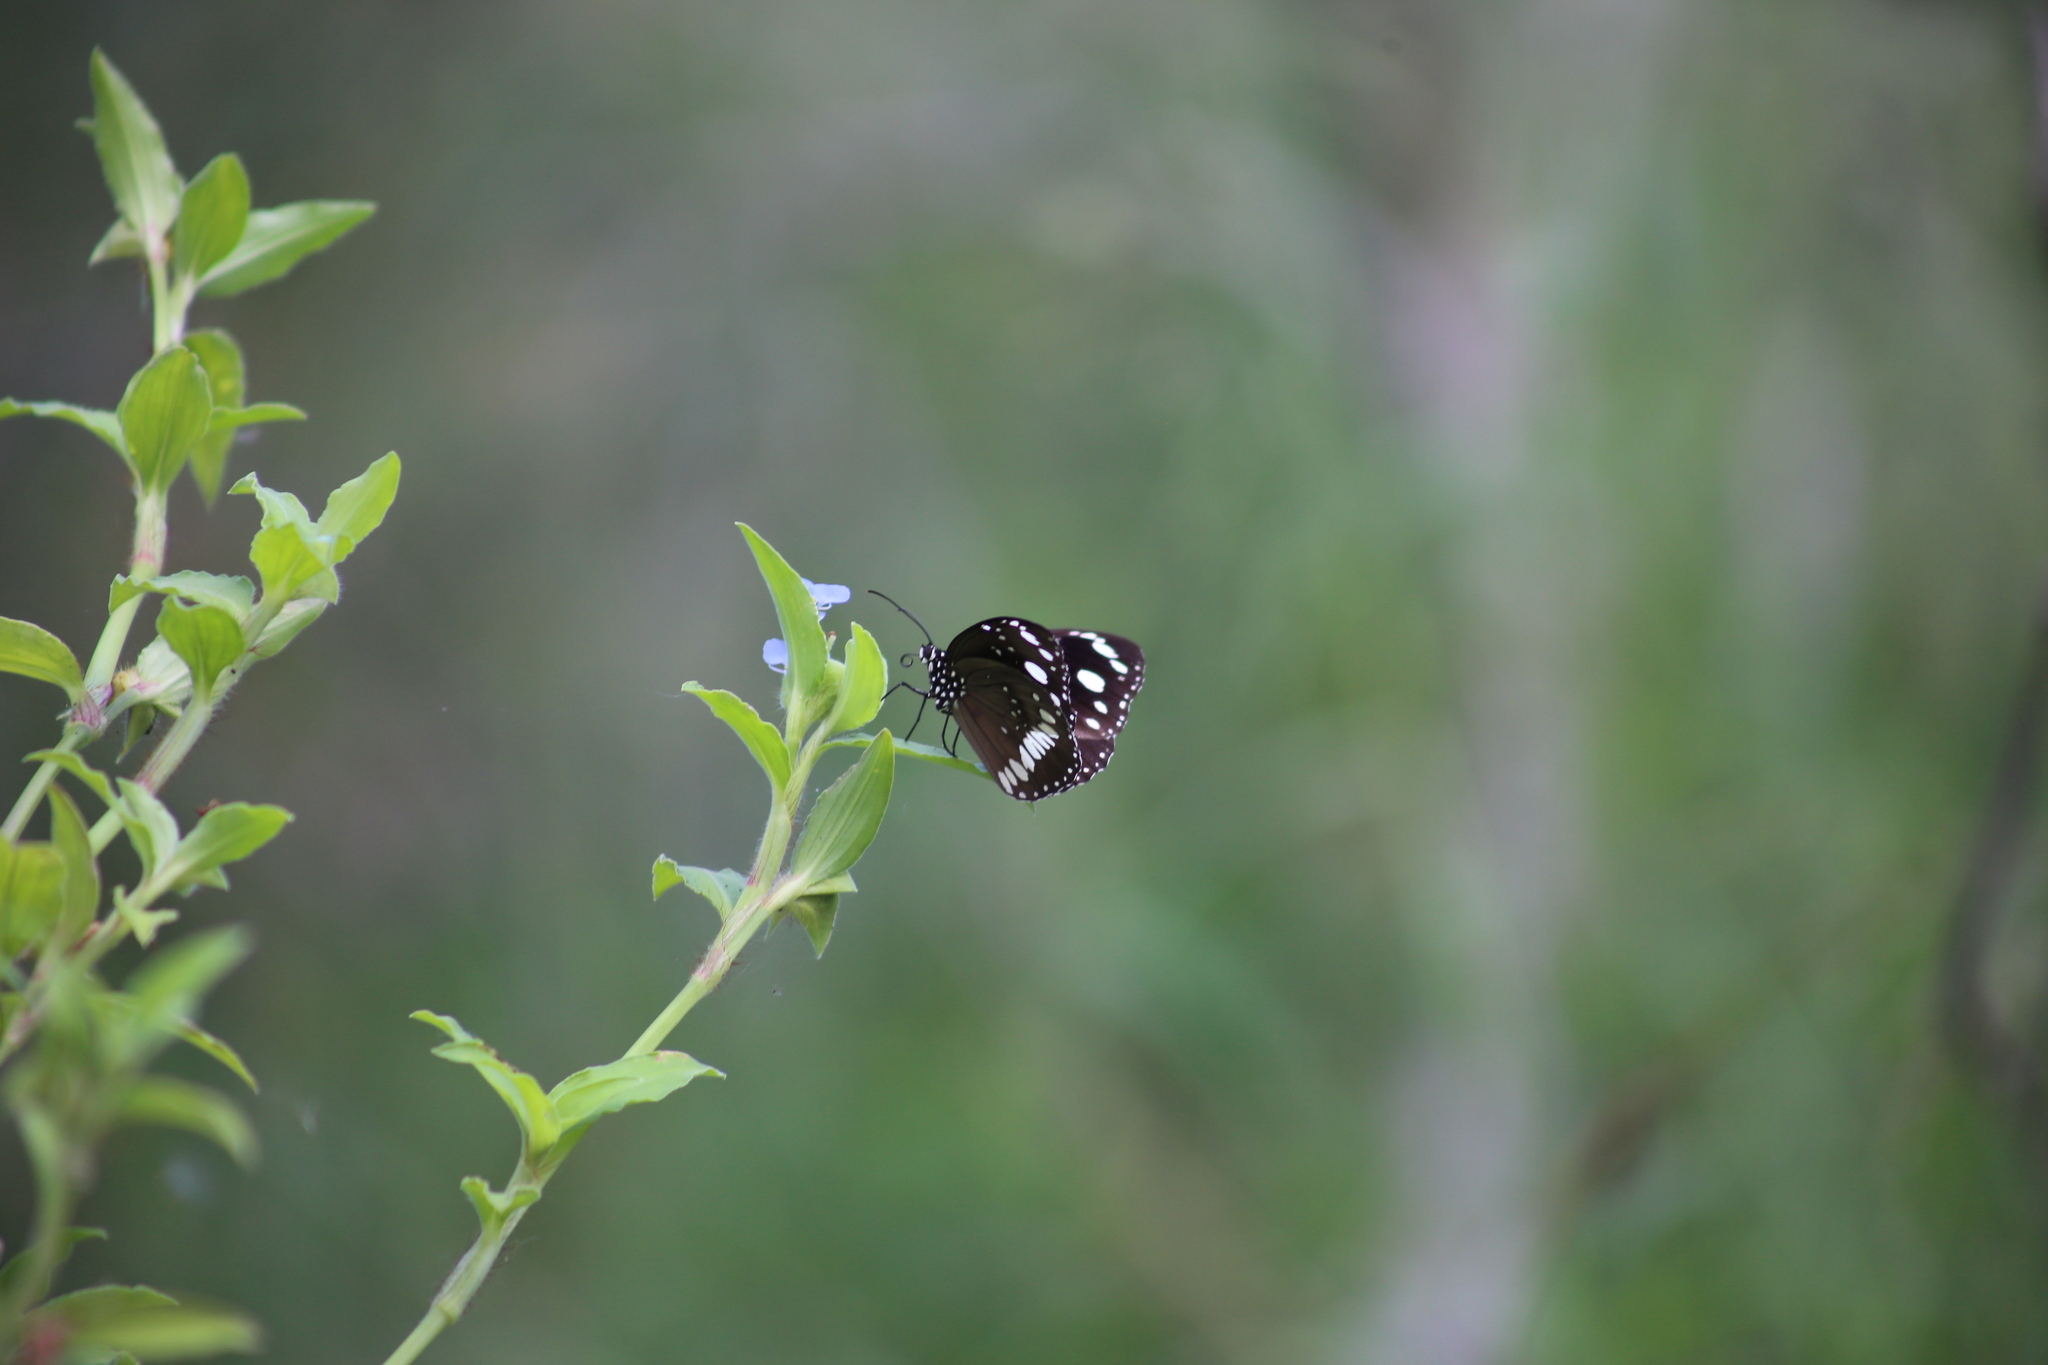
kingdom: Animalia
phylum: Arthropoda
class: Insecta
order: Lepidoptera
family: Nymphalidae
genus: Euploea
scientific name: Euploea core
